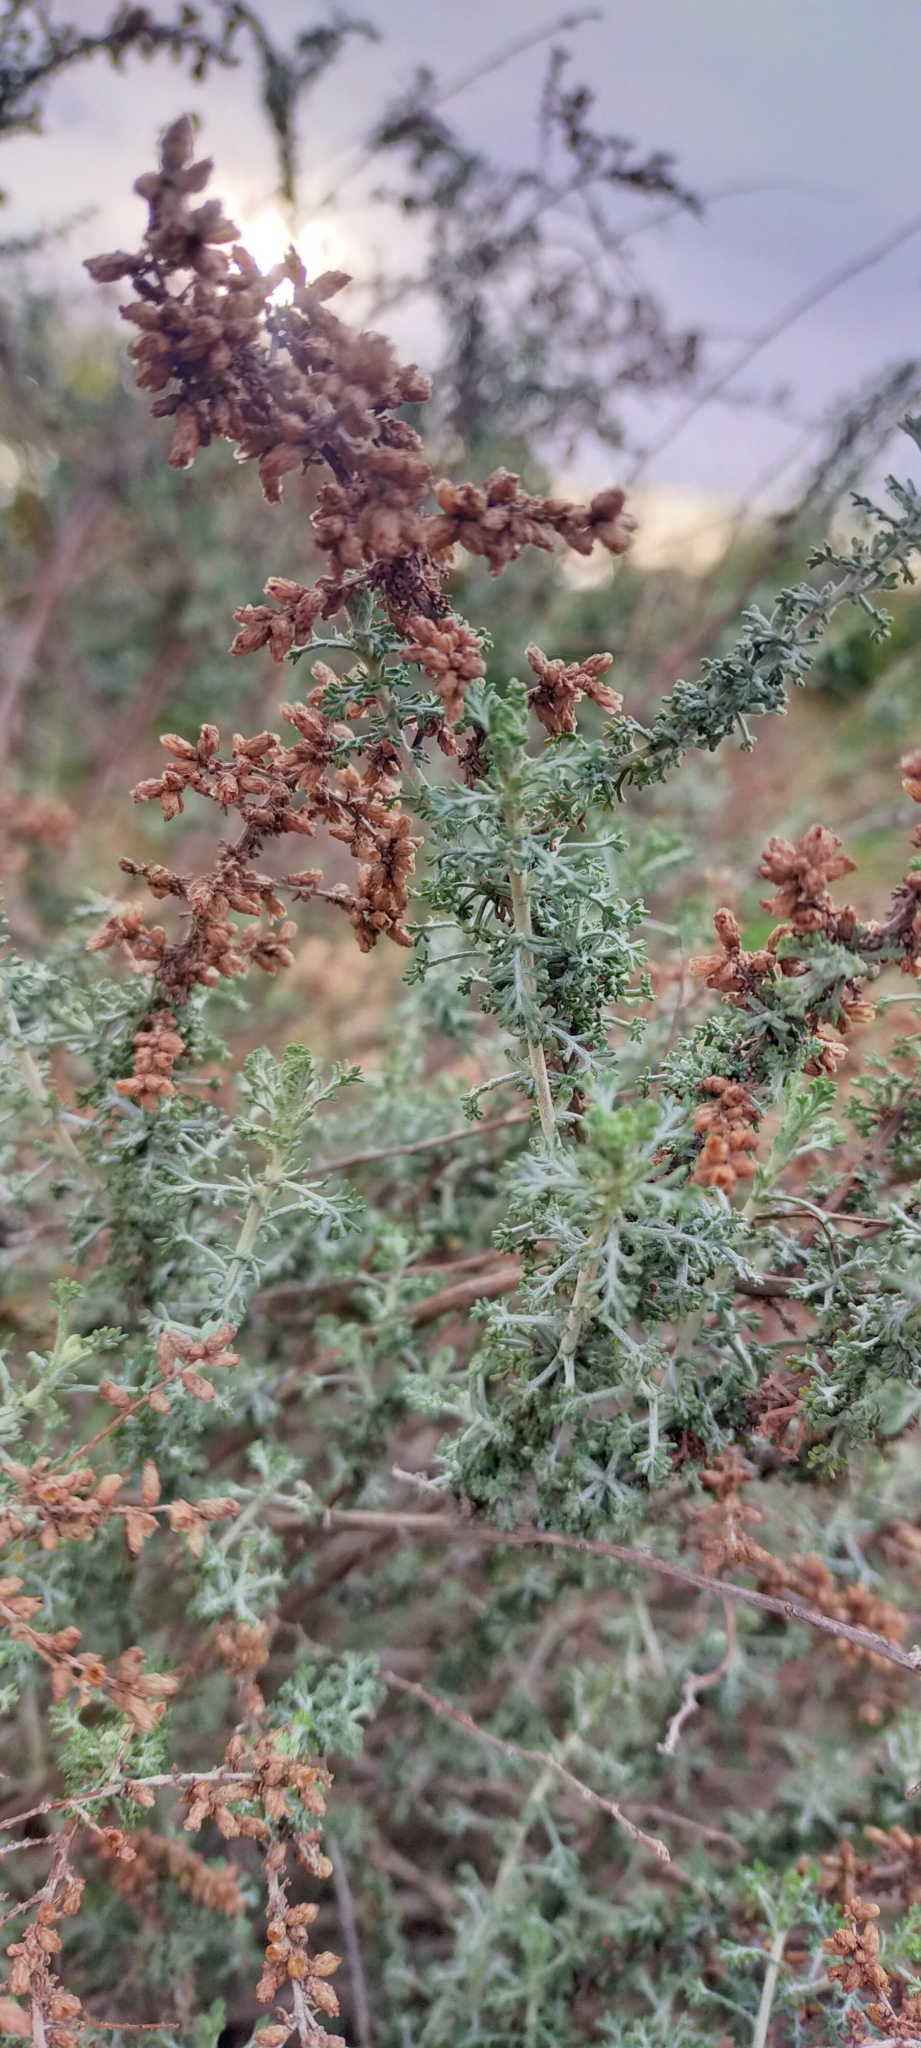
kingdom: Plantae
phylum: Tracheophyta
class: Magnoliopsida
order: Asterales
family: Asteraceae
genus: Artemisia
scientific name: Artemisia herba-alba
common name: White wormwood
